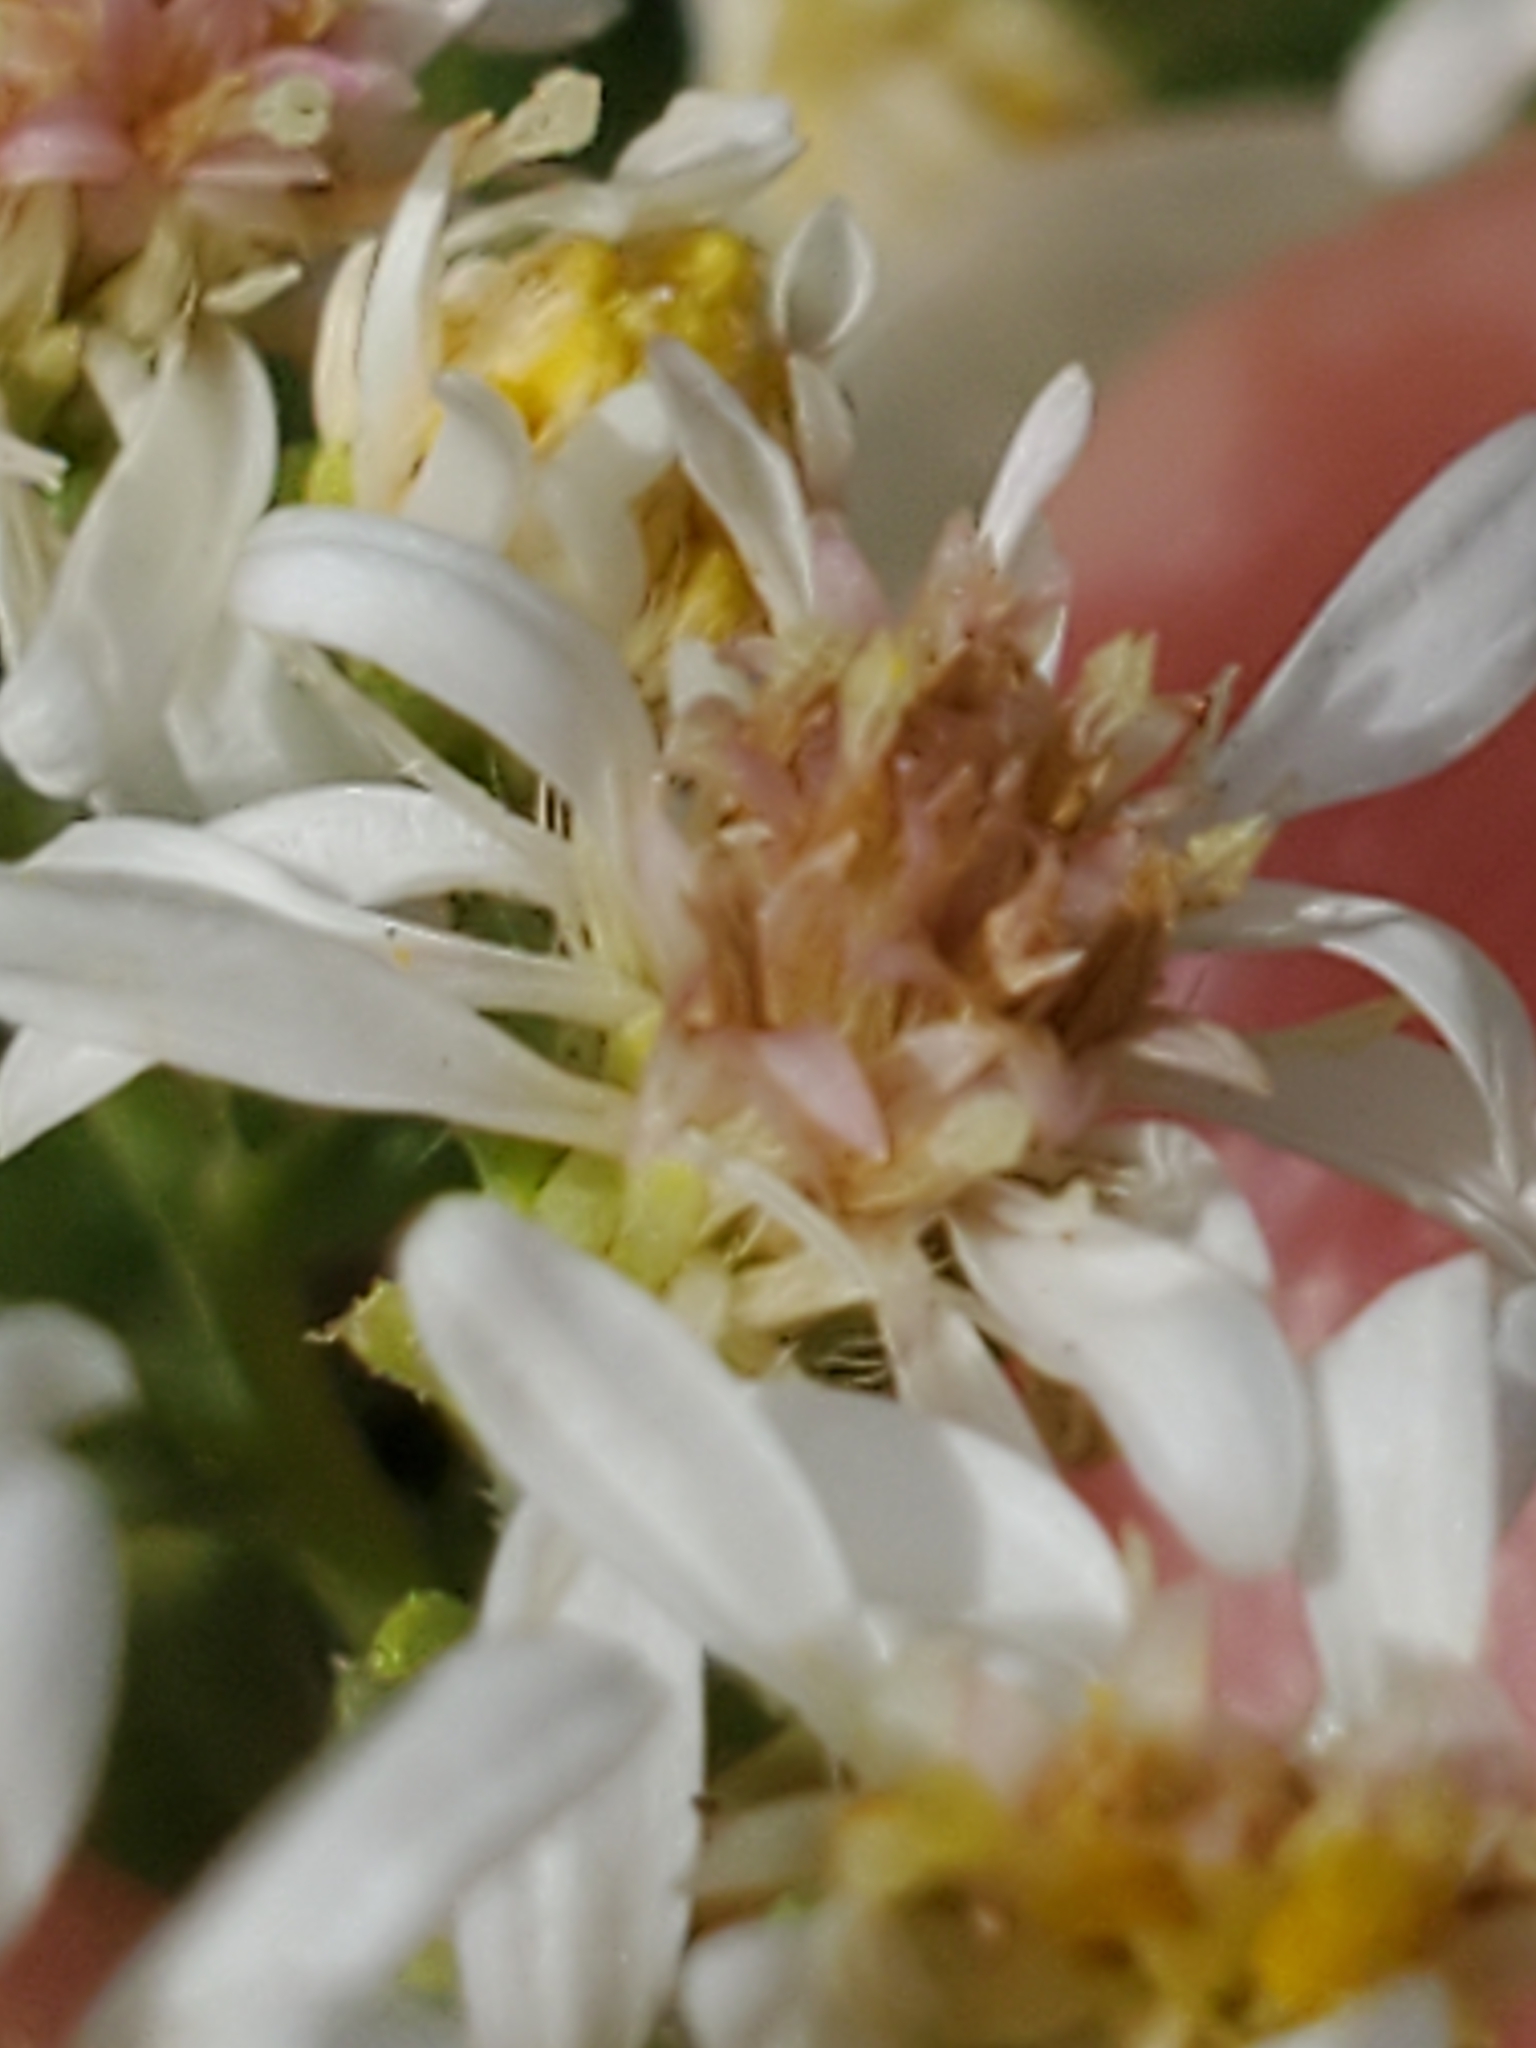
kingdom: Plantae
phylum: Tracheophyta
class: Magnoliopsida
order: Asterales
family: Asteraceae
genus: Symphyotrichum
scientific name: Symphyotrichum ericoides
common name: Heath aster
